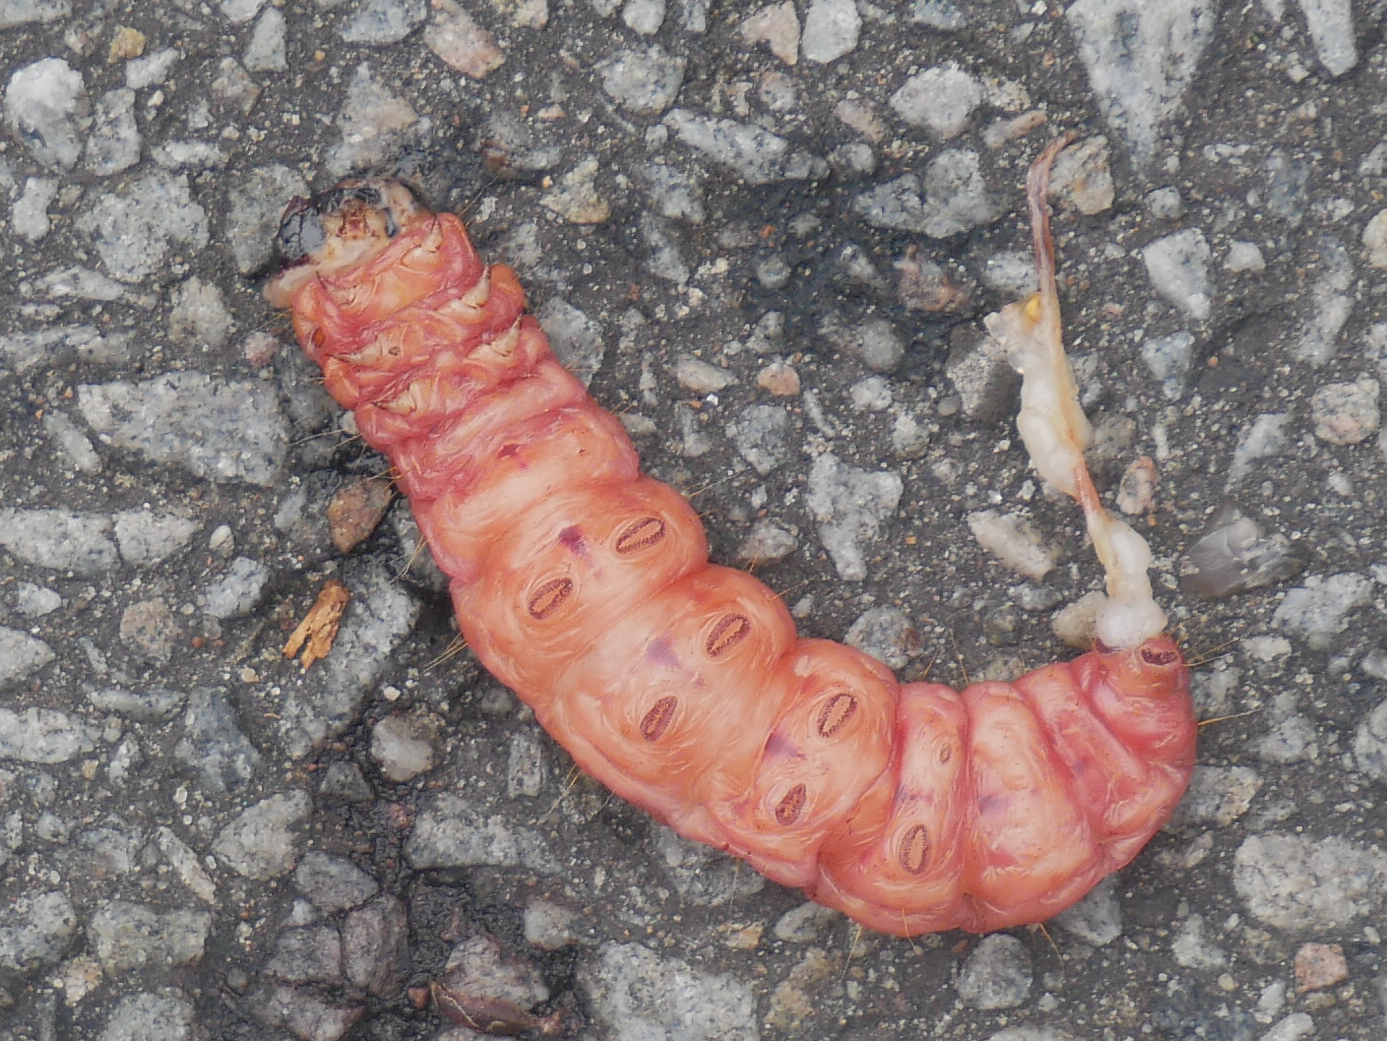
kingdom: Animalia
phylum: Arthropoda
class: Insecta
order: Lepidoptera
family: Cossidae
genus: Cossus
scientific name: Cossus cossus
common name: Goat moth
